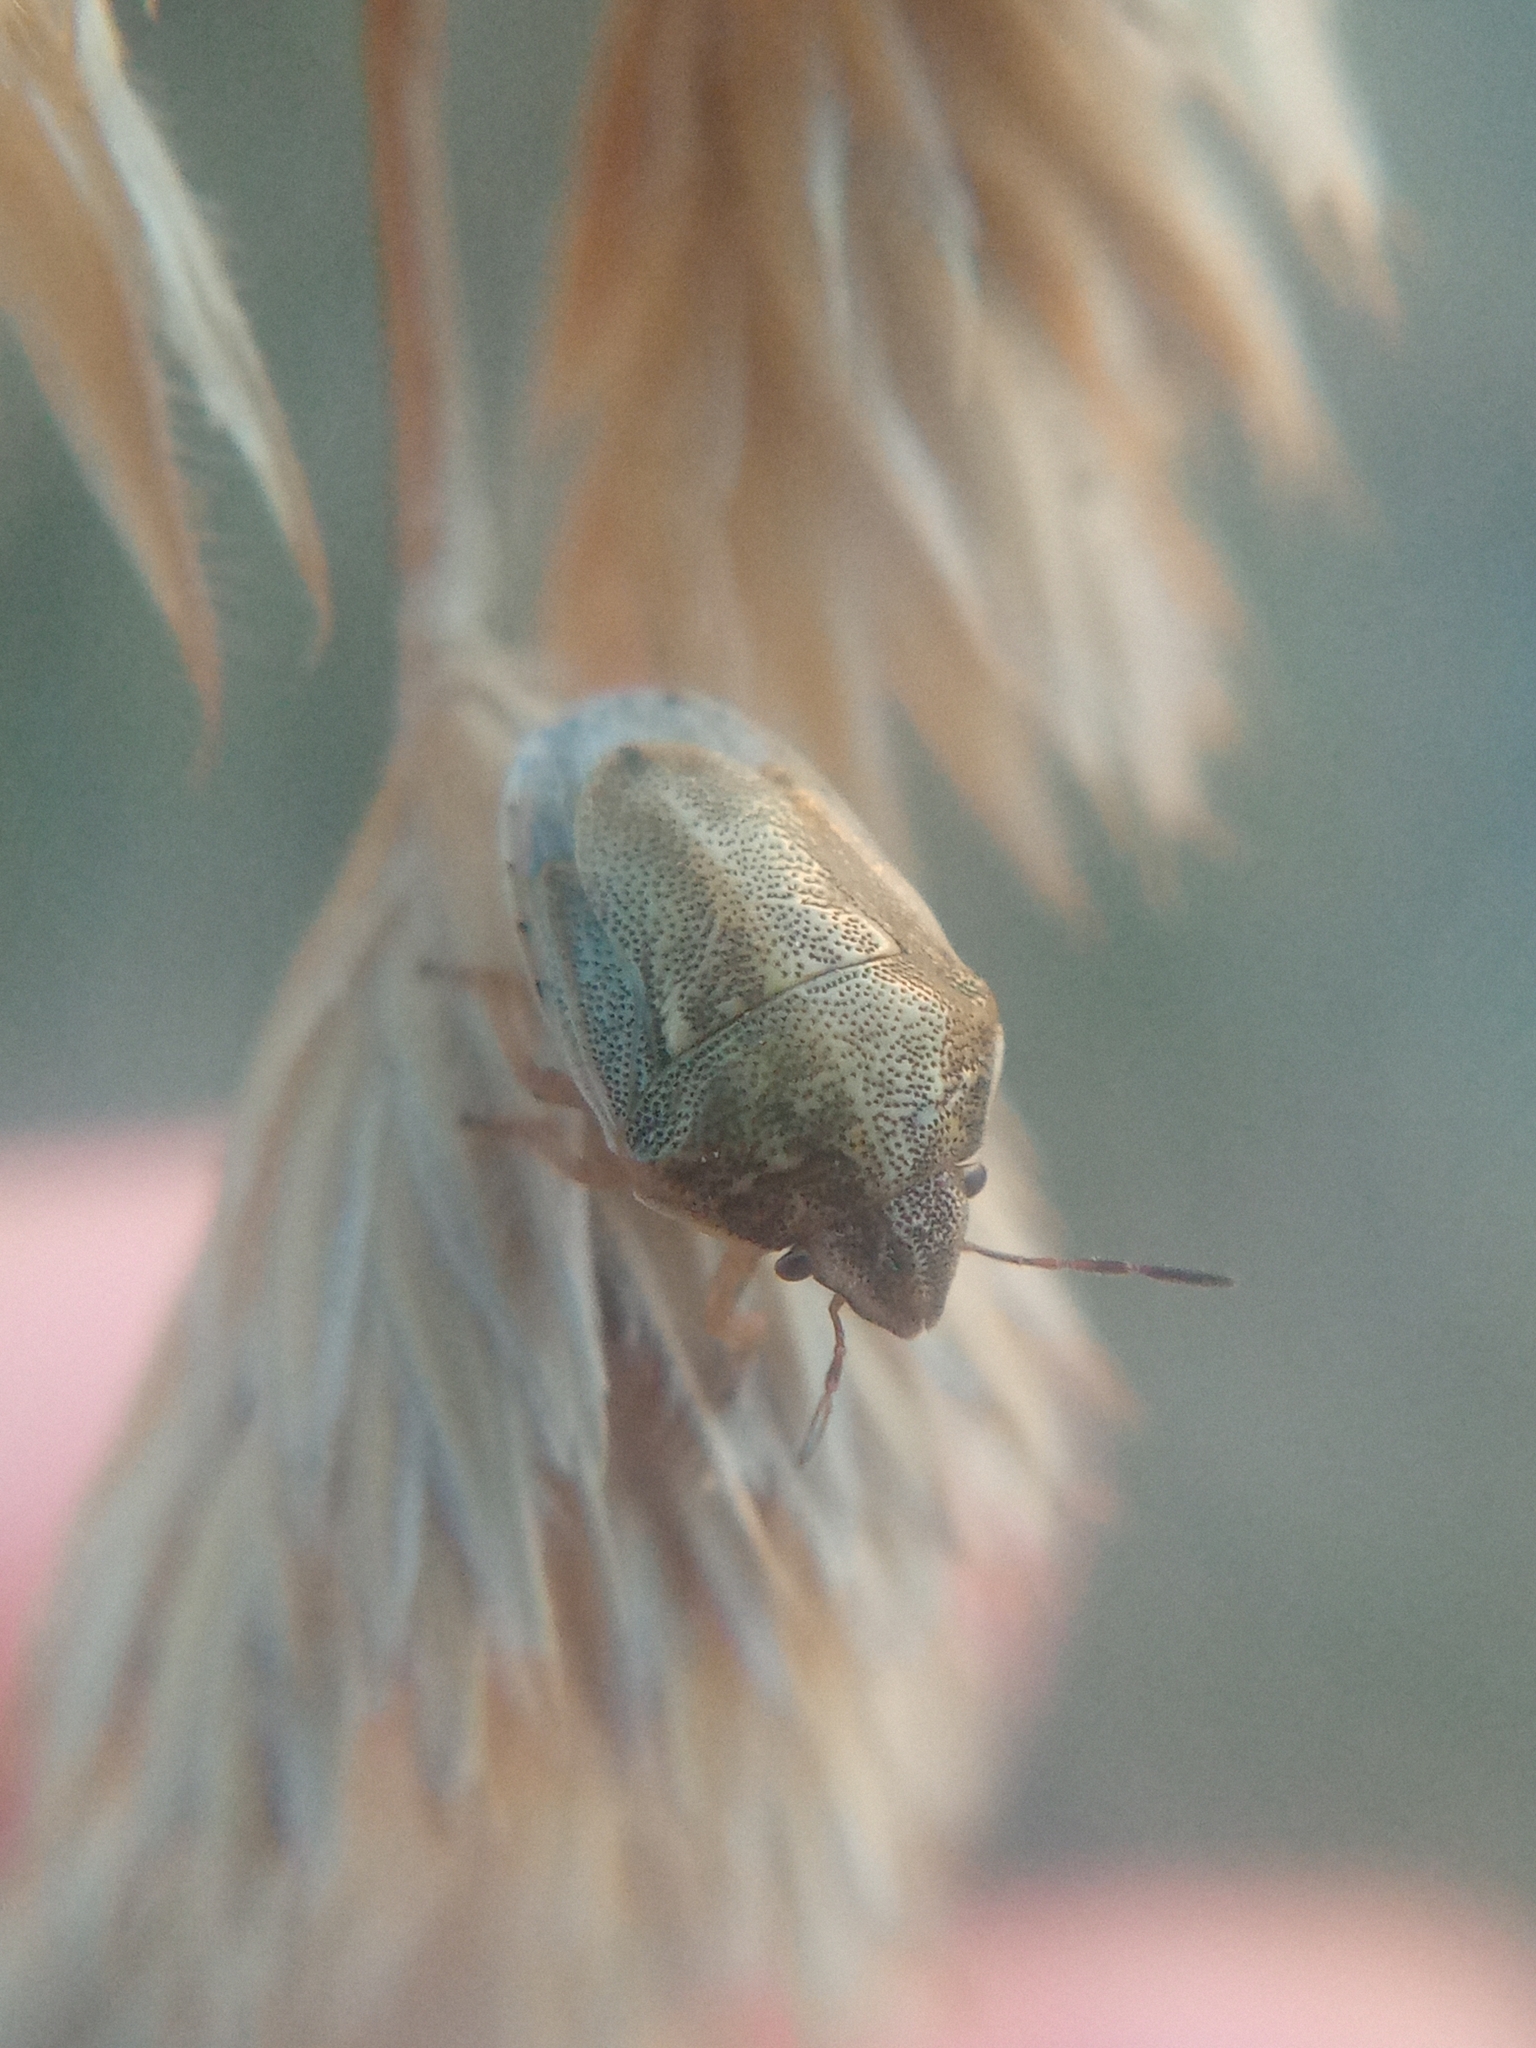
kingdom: Animalia
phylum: Arthropoda
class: Insecta
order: Hemiptera
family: Pentatomidae
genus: Neottiglossa
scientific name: Neottiglossa leporina
